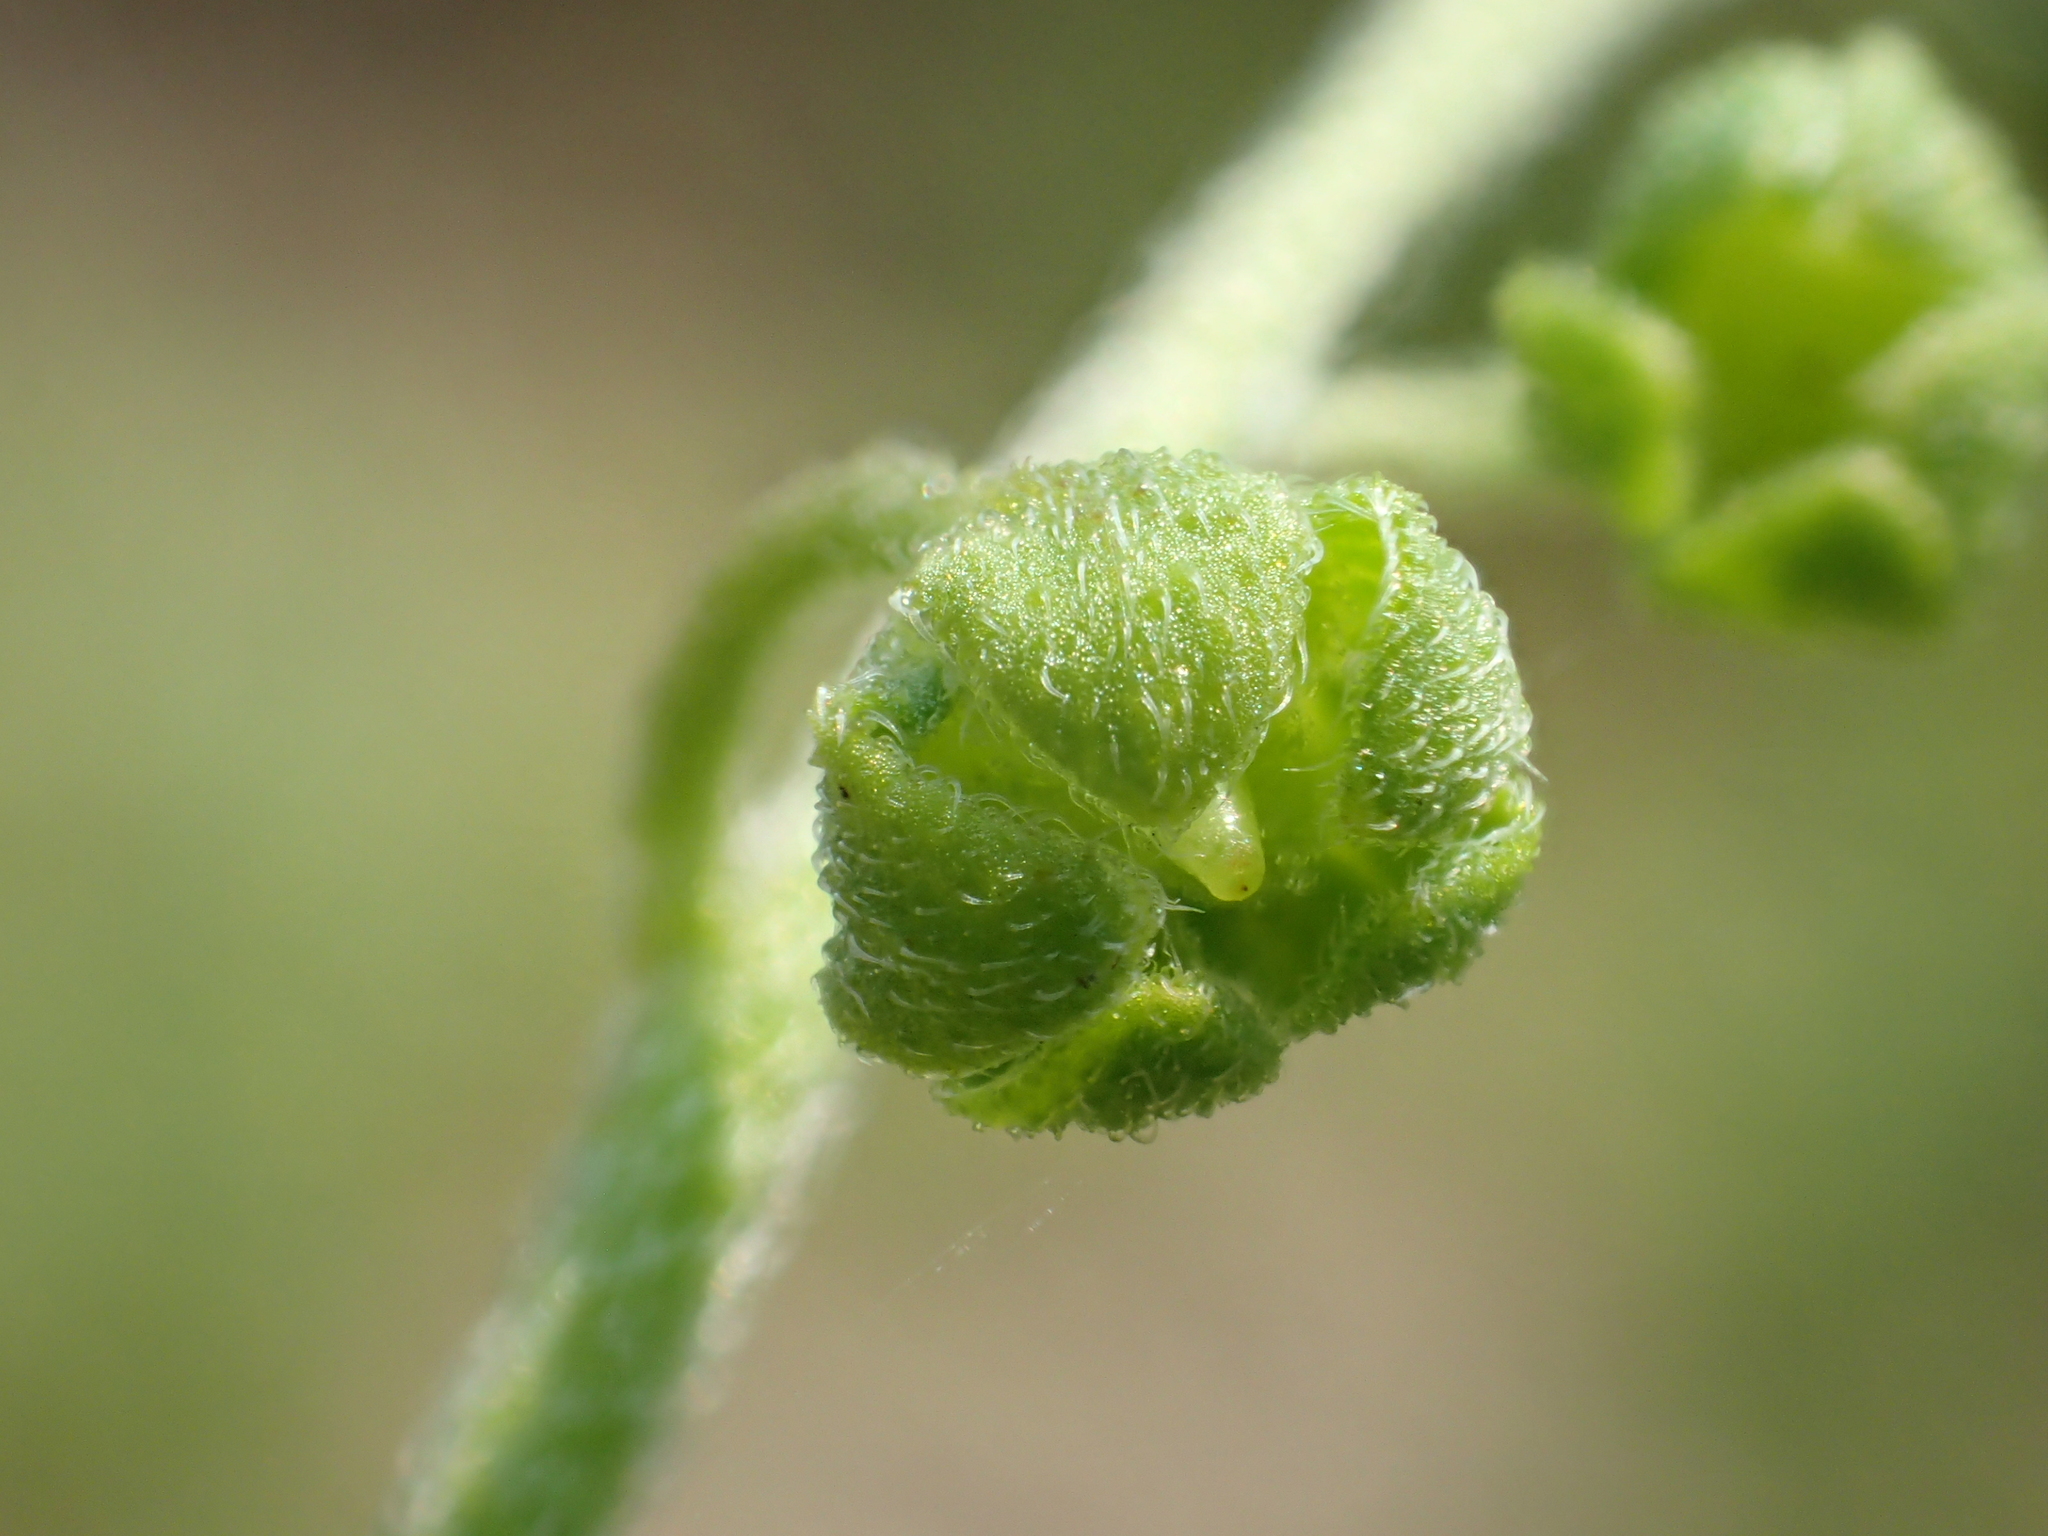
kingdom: Plantae
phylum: Tracheophyta
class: Magnoliopsida
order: Boraginales
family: Boraginaceae
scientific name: Boraginaceae
